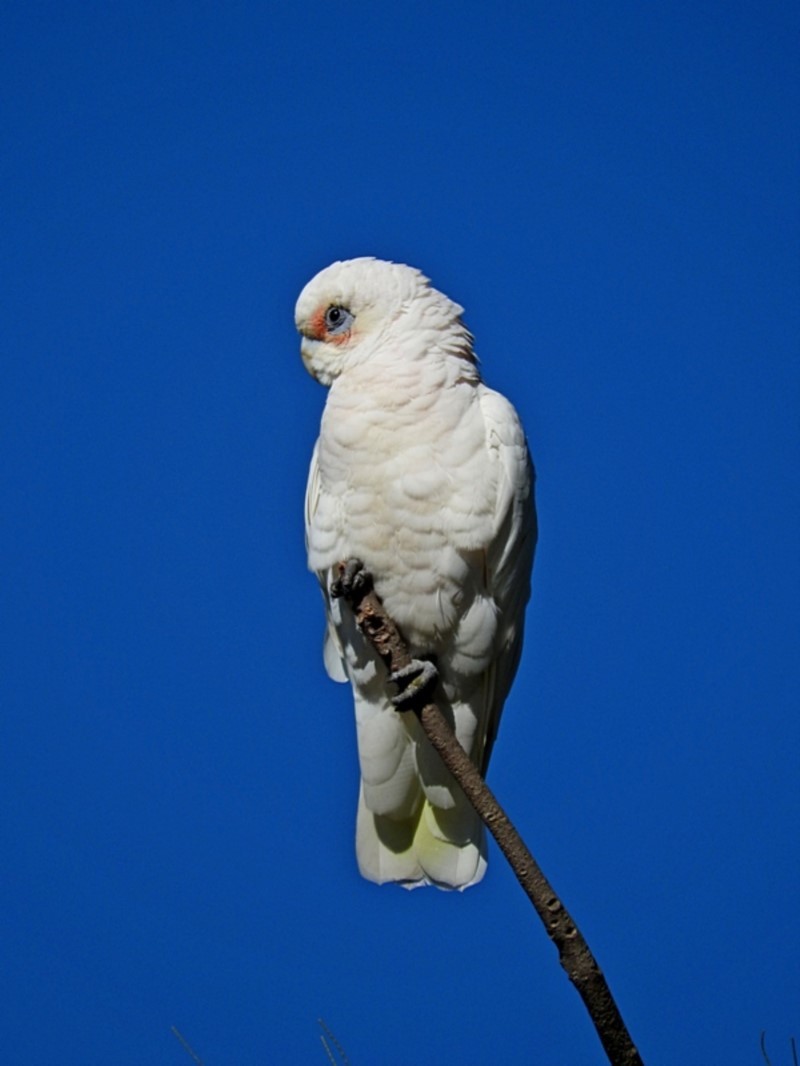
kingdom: Animalia
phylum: Chordata
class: Aves
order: Psittaciformes
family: Psittacidae
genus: Cacatua
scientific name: Cacatua sanguinea
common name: Little corella
